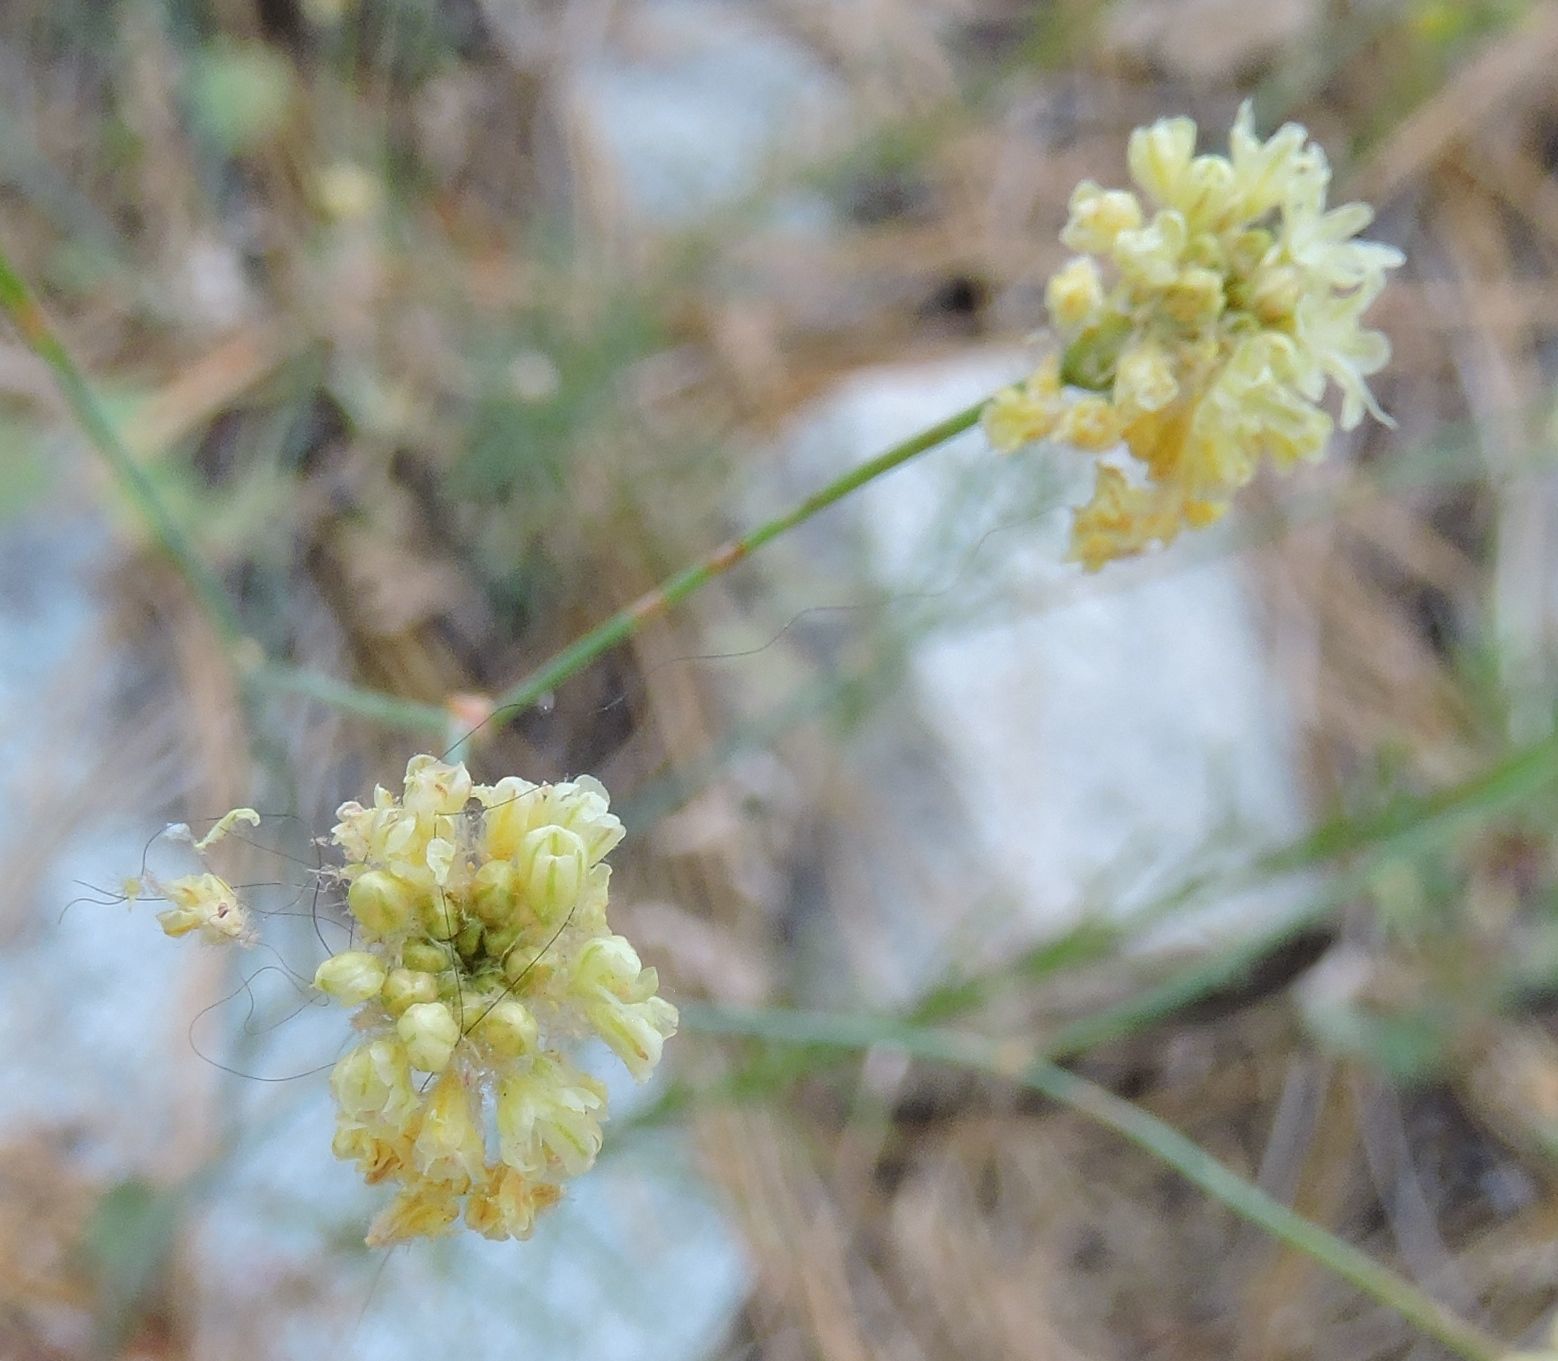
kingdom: Plantae
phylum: Tracheophyta
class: Magnoliopsida
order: Caryophyllales
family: Polygonaceae
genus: Eriogonum
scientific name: Eriogonum nudum
